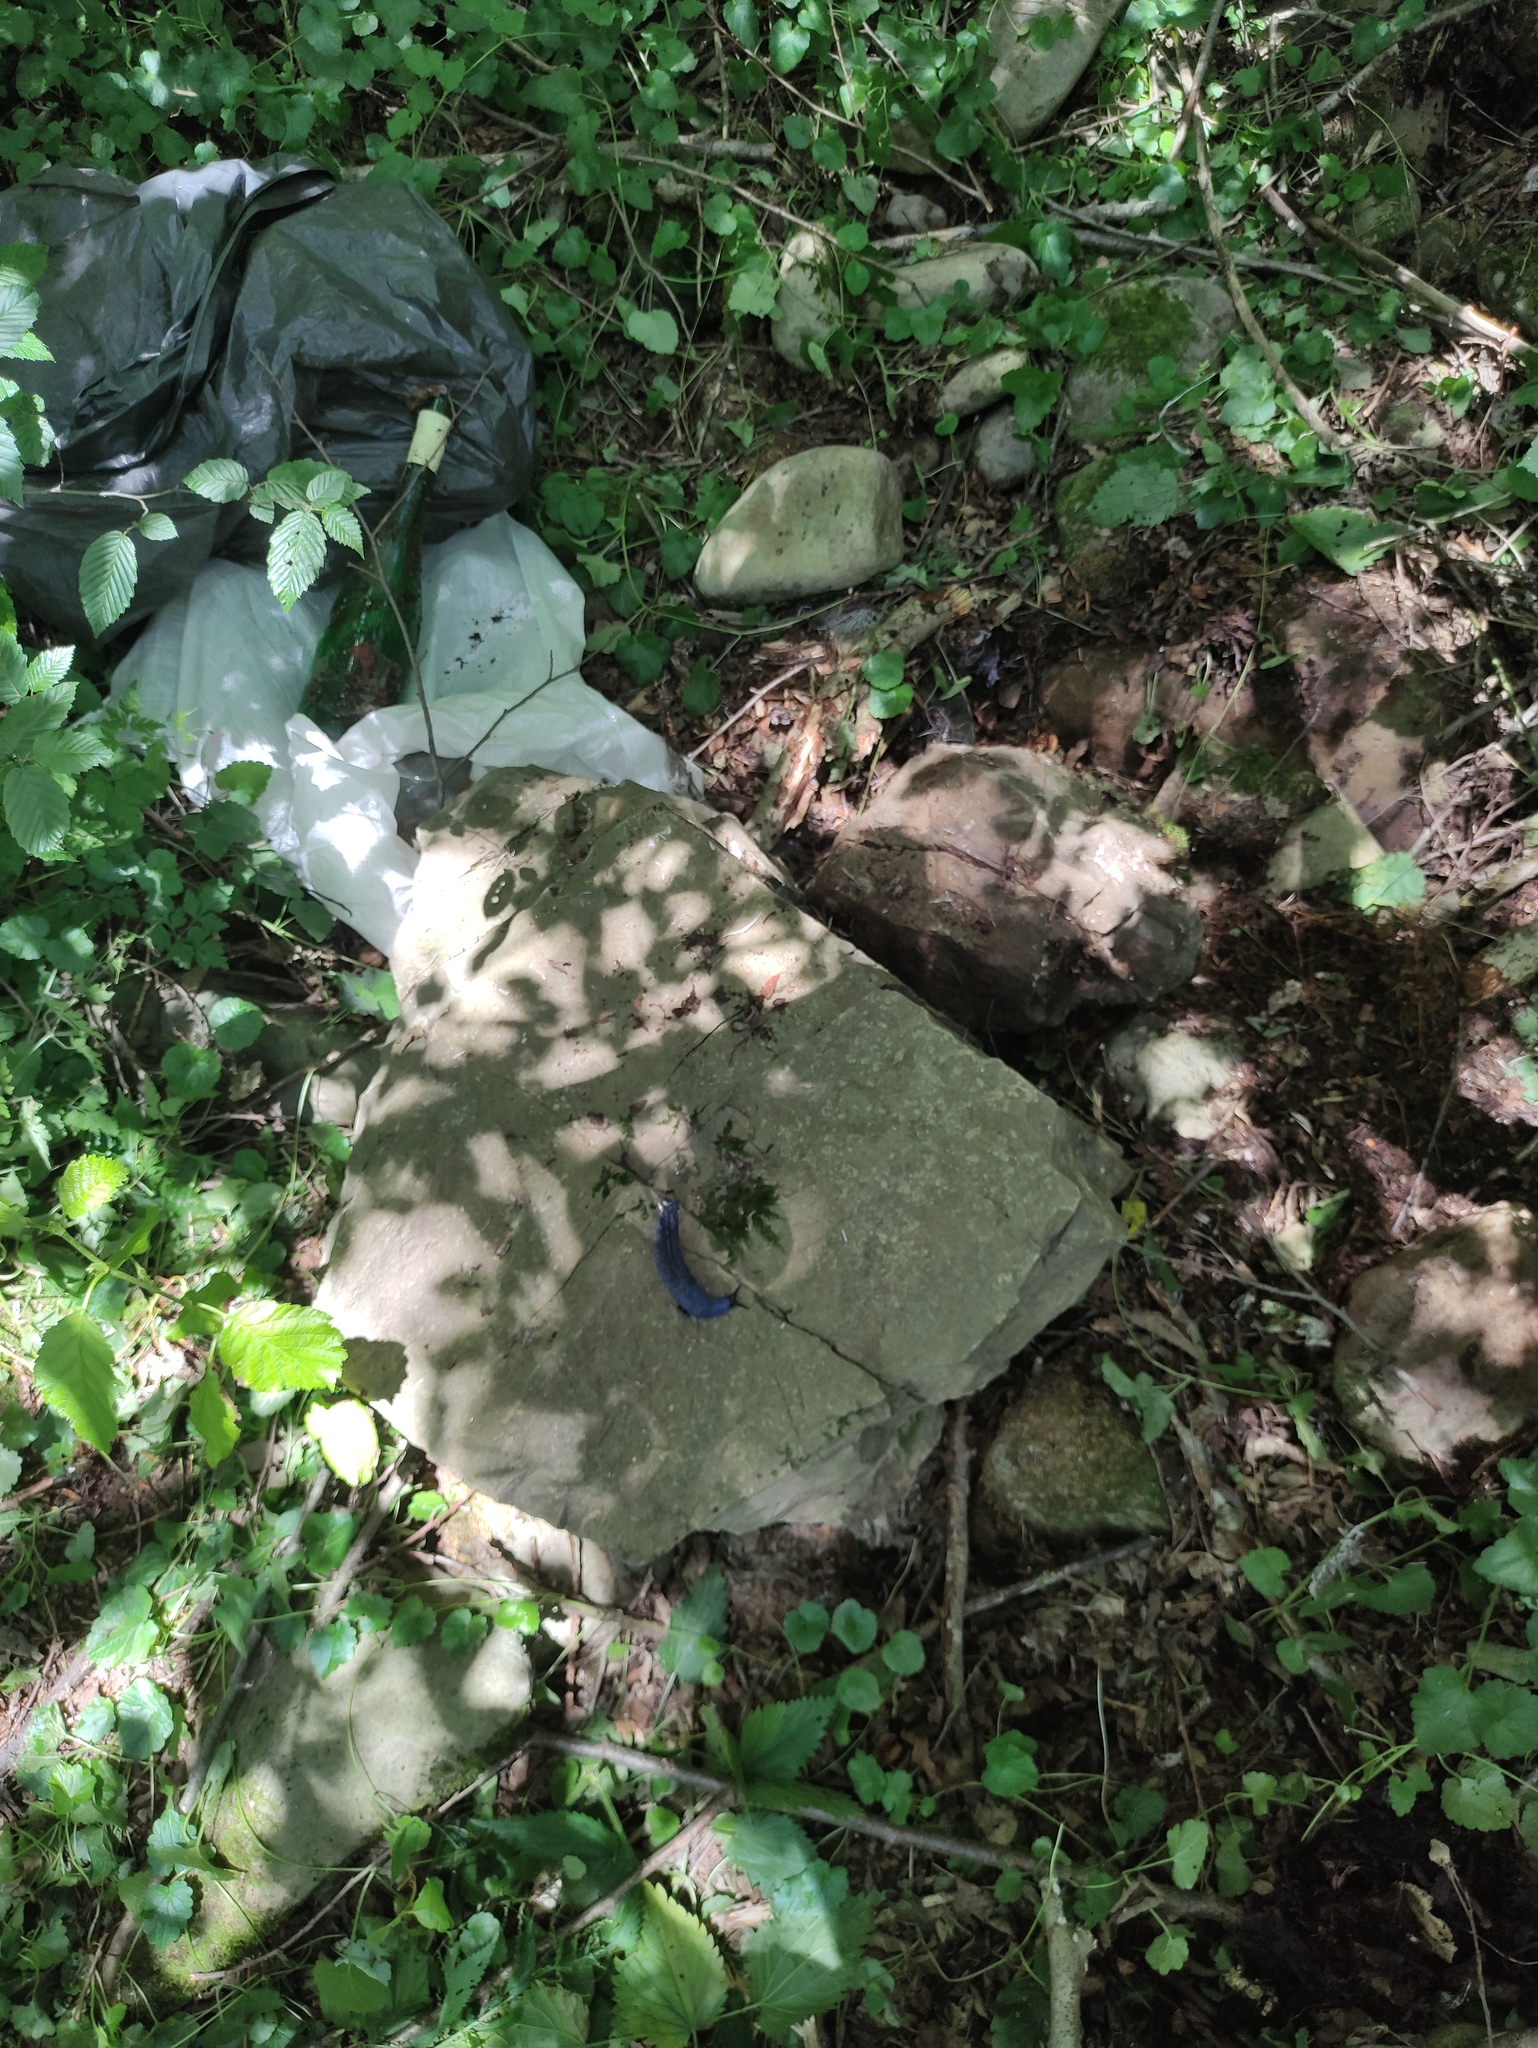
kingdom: Animalia
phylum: Mollusca
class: Gastropoda
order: Stylommatophora
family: Limacidae
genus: Bielzia
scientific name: Bielzia coerulans
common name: Carpathian blue slug
